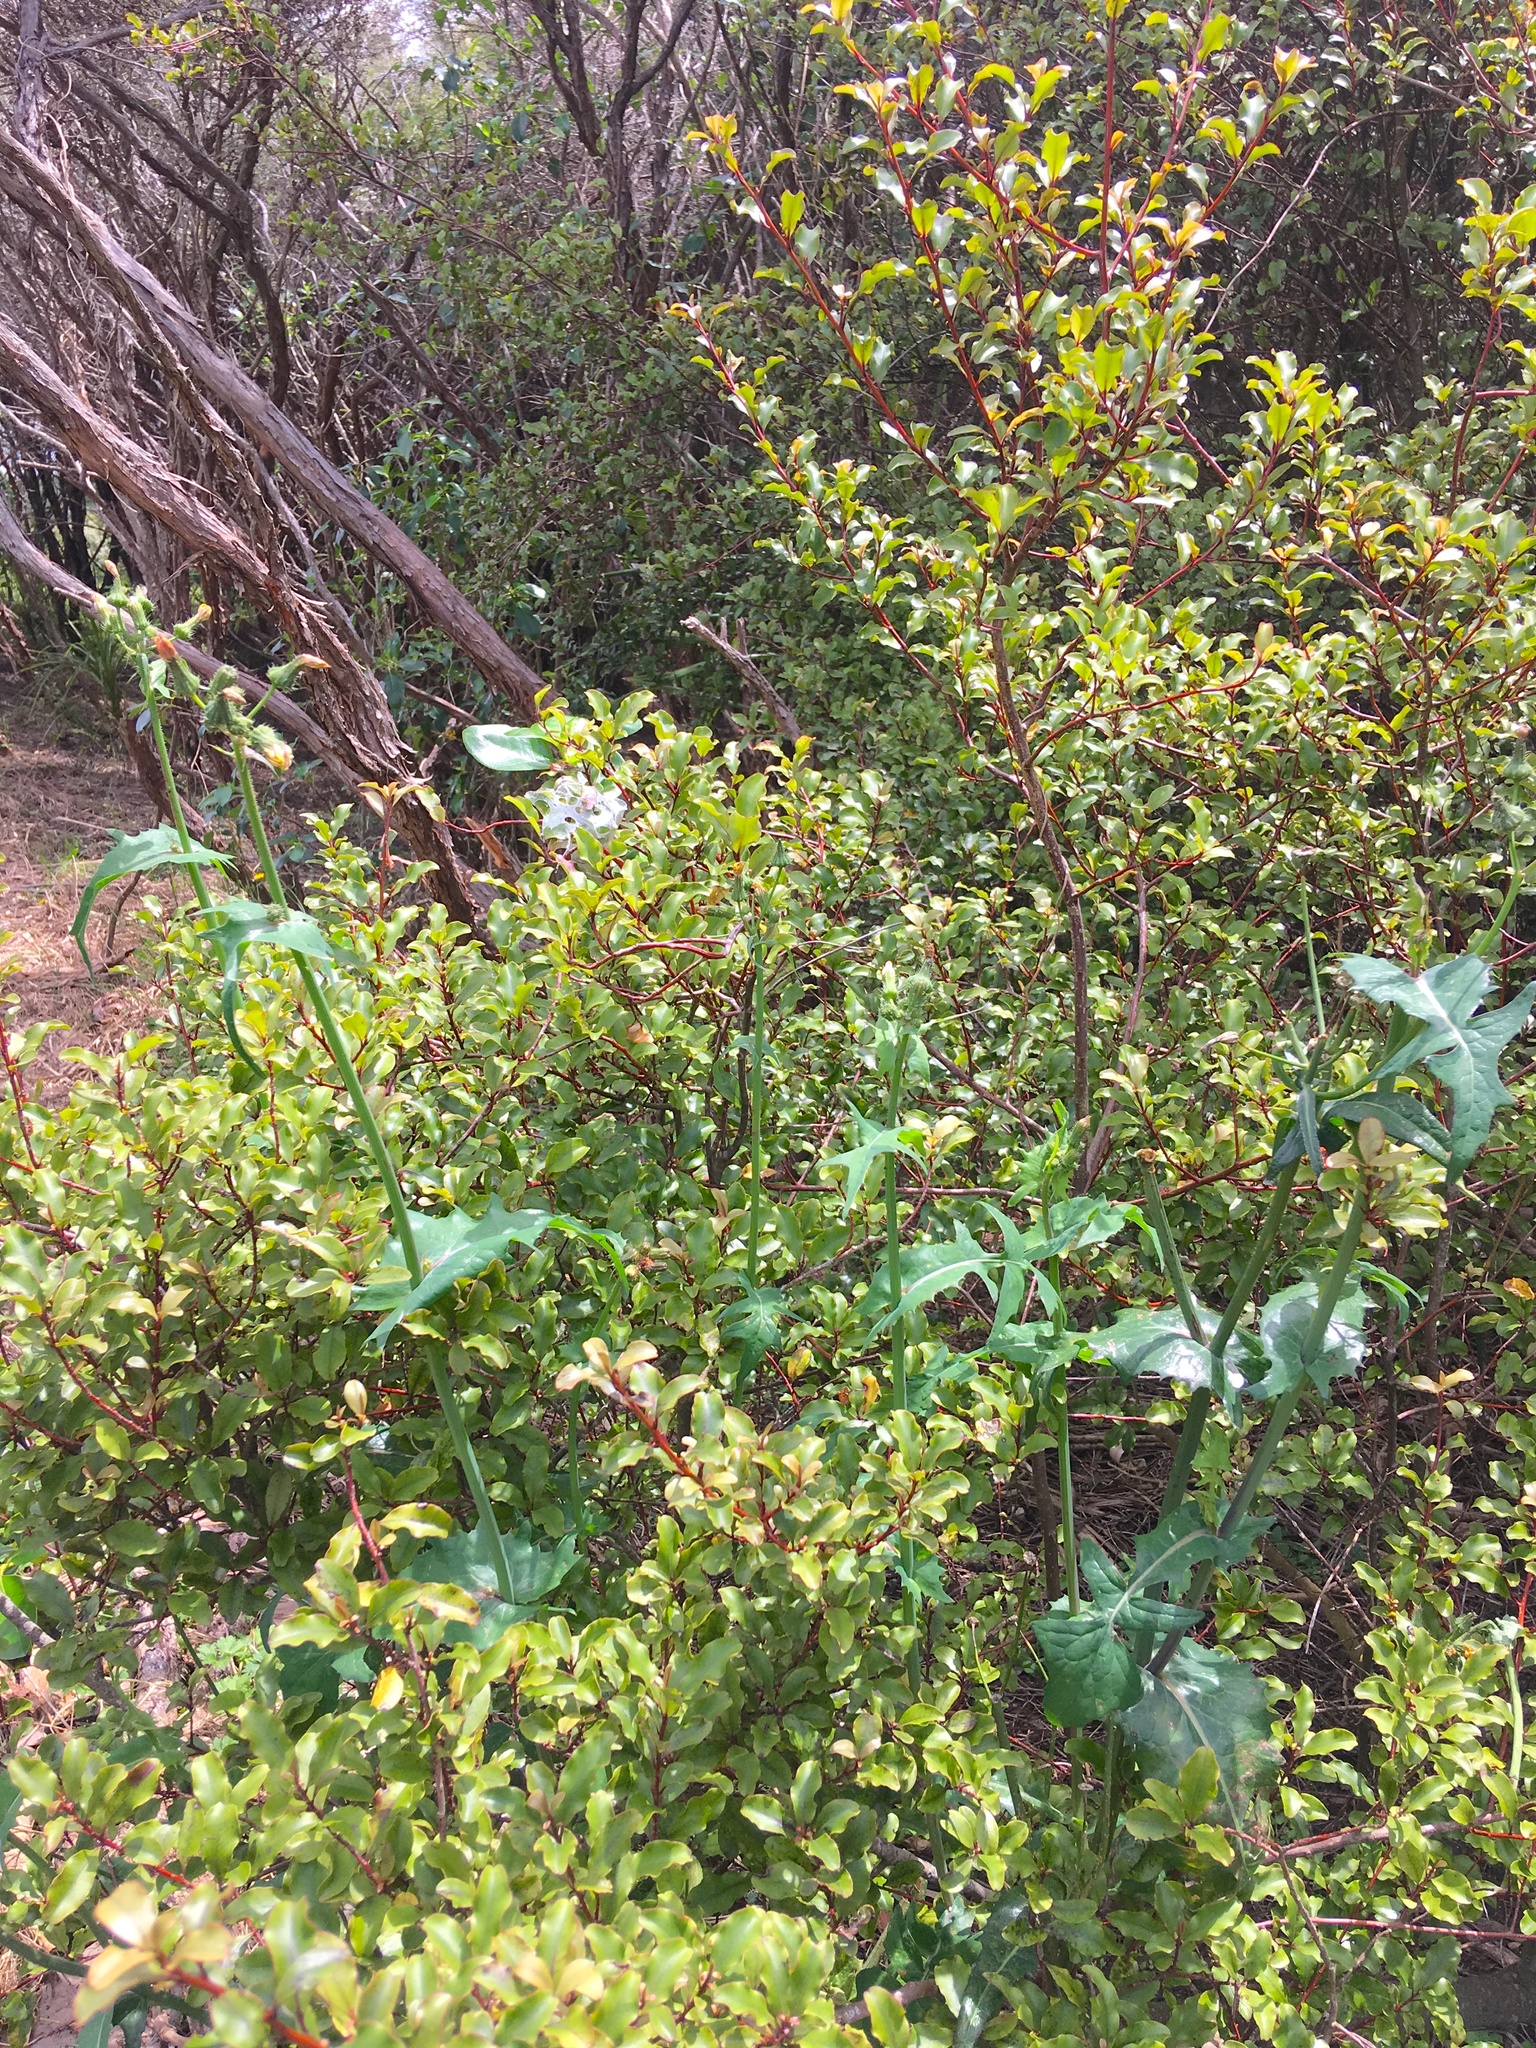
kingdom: Plantae
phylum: Tracheophyta
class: Magnoliopsida
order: Asterales
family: Asteraceae
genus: Sonchus
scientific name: Sonchus oleraceus
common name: Common sowthistle
